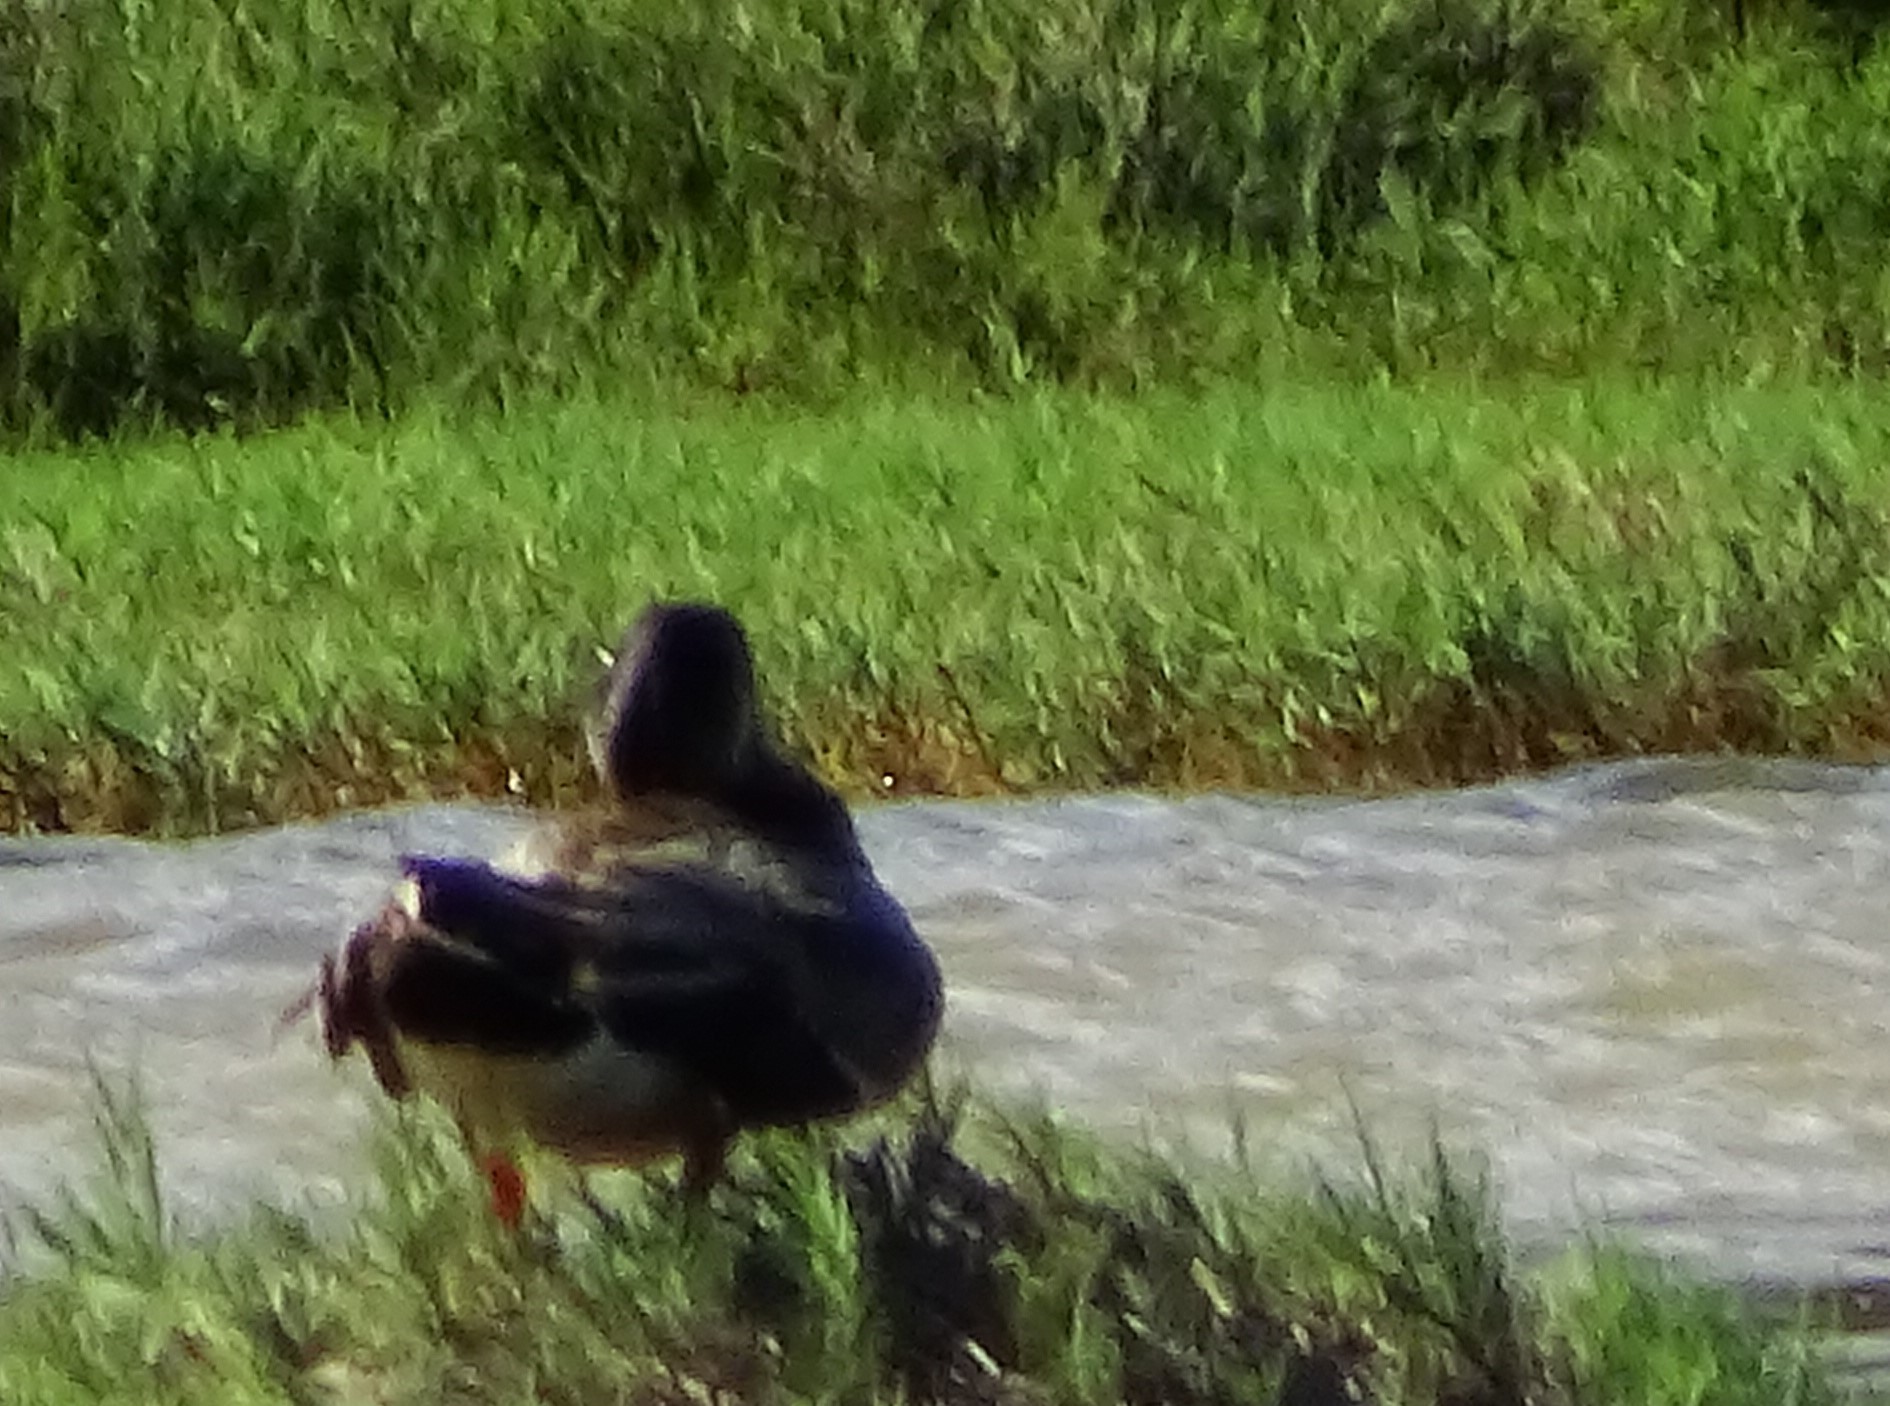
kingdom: Animalia
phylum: Chordata
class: Aves
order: Anseriformes
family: Anatidae
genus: Anas
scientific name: Anas platyrhynchos
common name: Mallard
